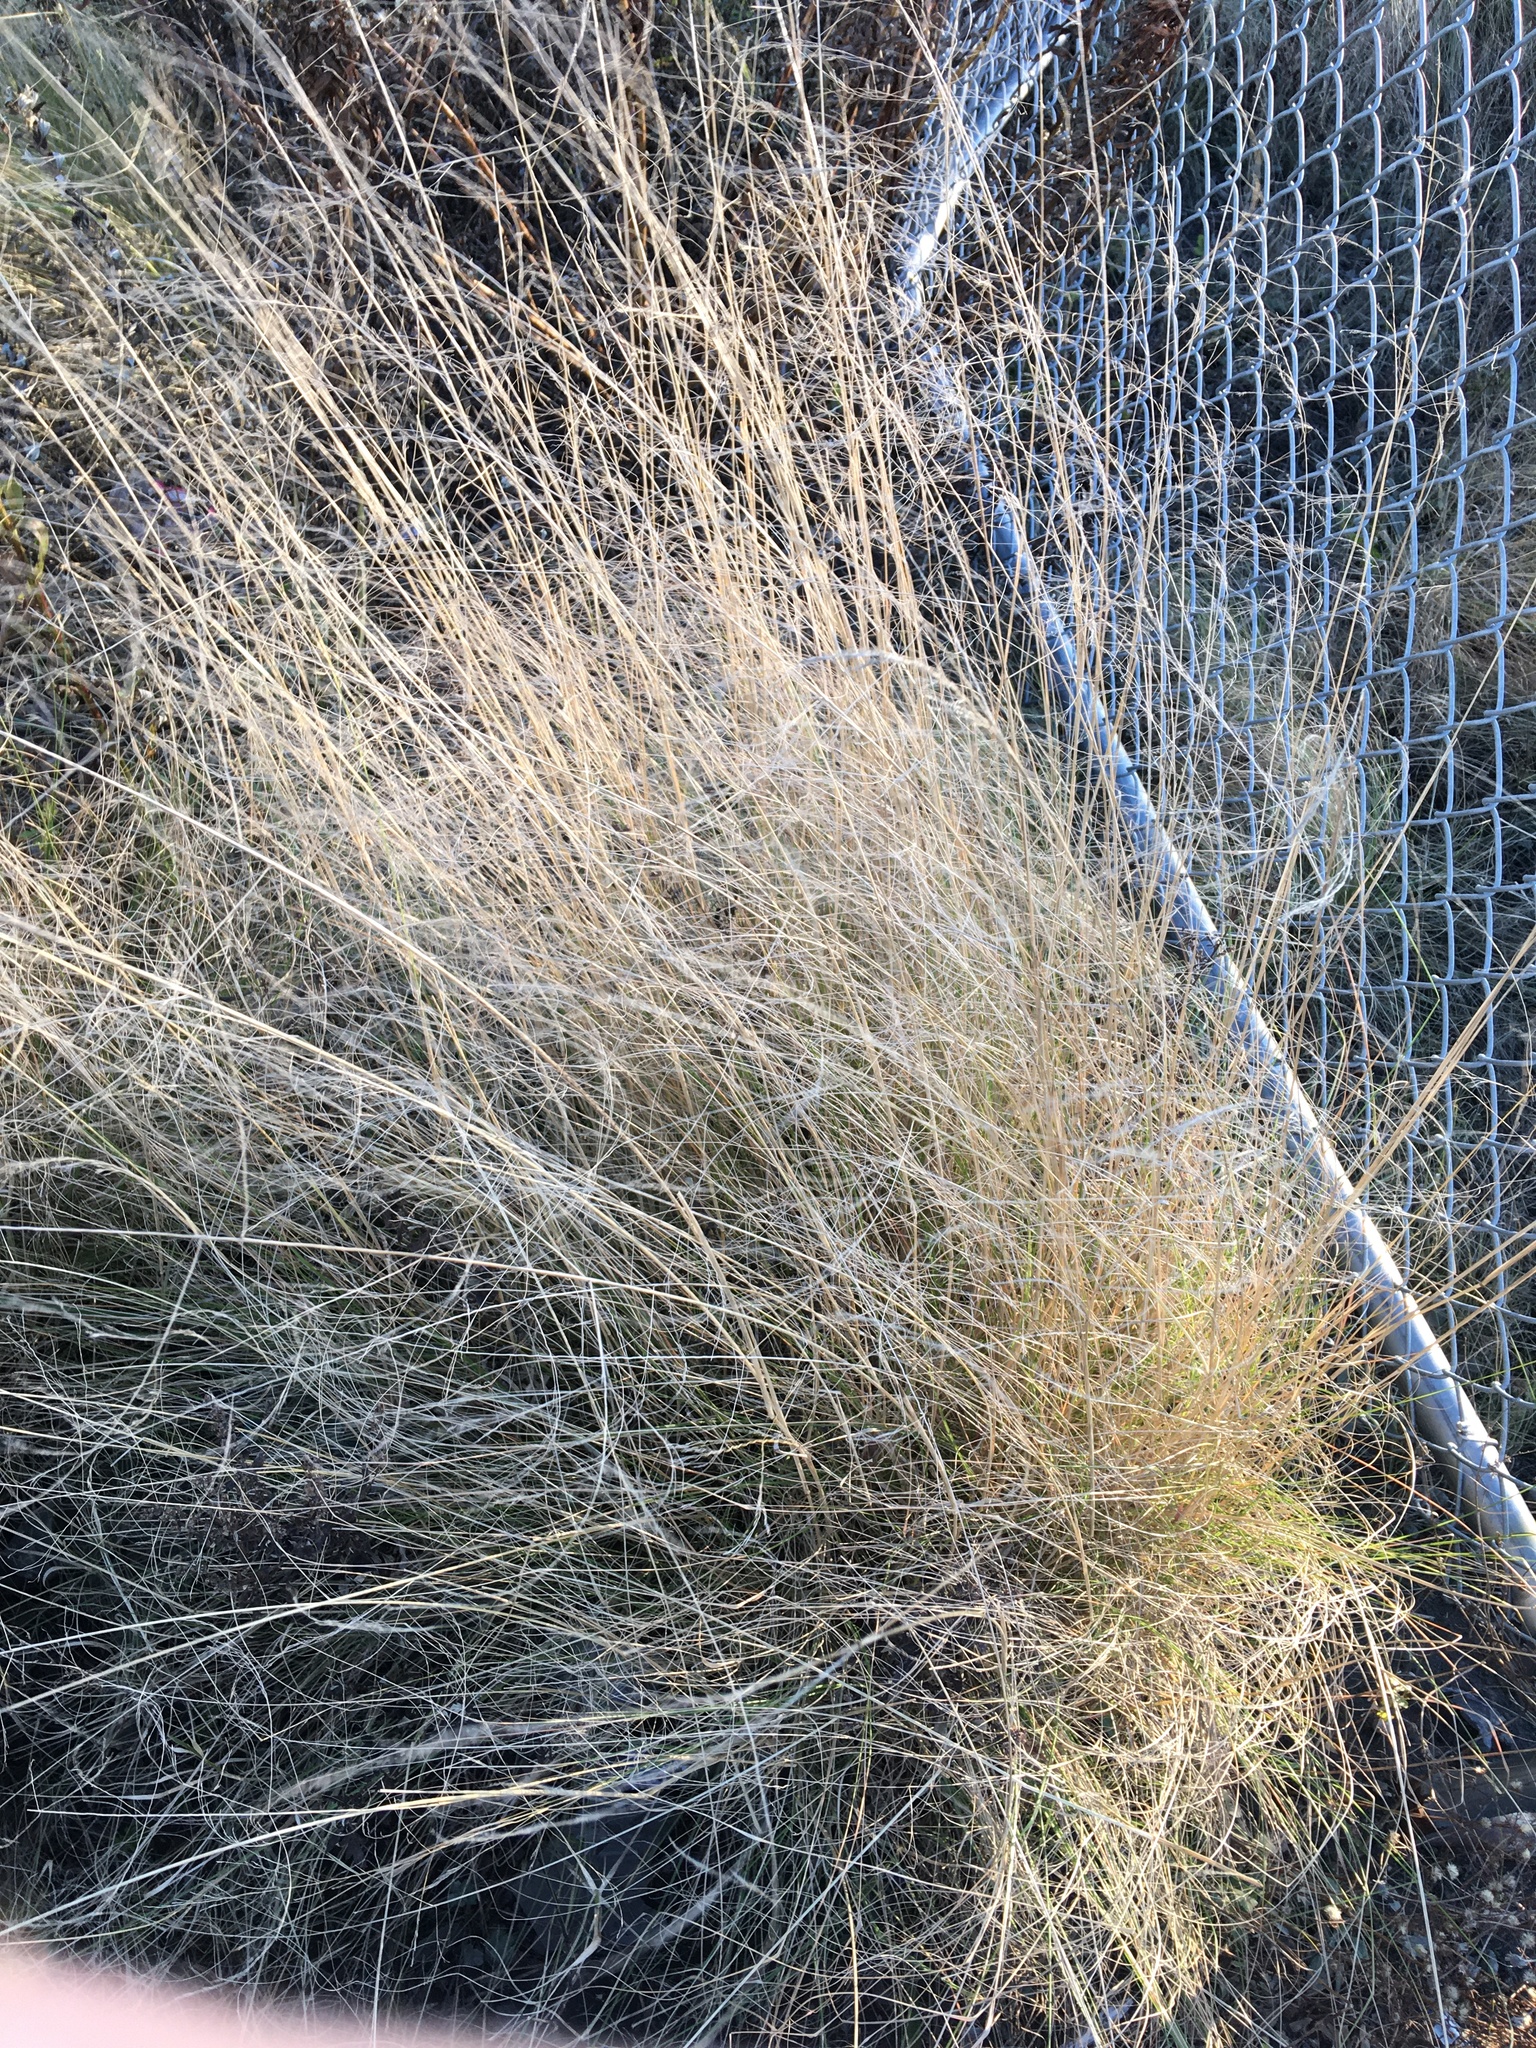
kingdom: Plantae
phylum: Tracheophyta
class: Liliopsida
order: Poales
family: Poaceae
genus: Eragrostis
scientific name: Eragrostis curvula
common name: African love-grass
